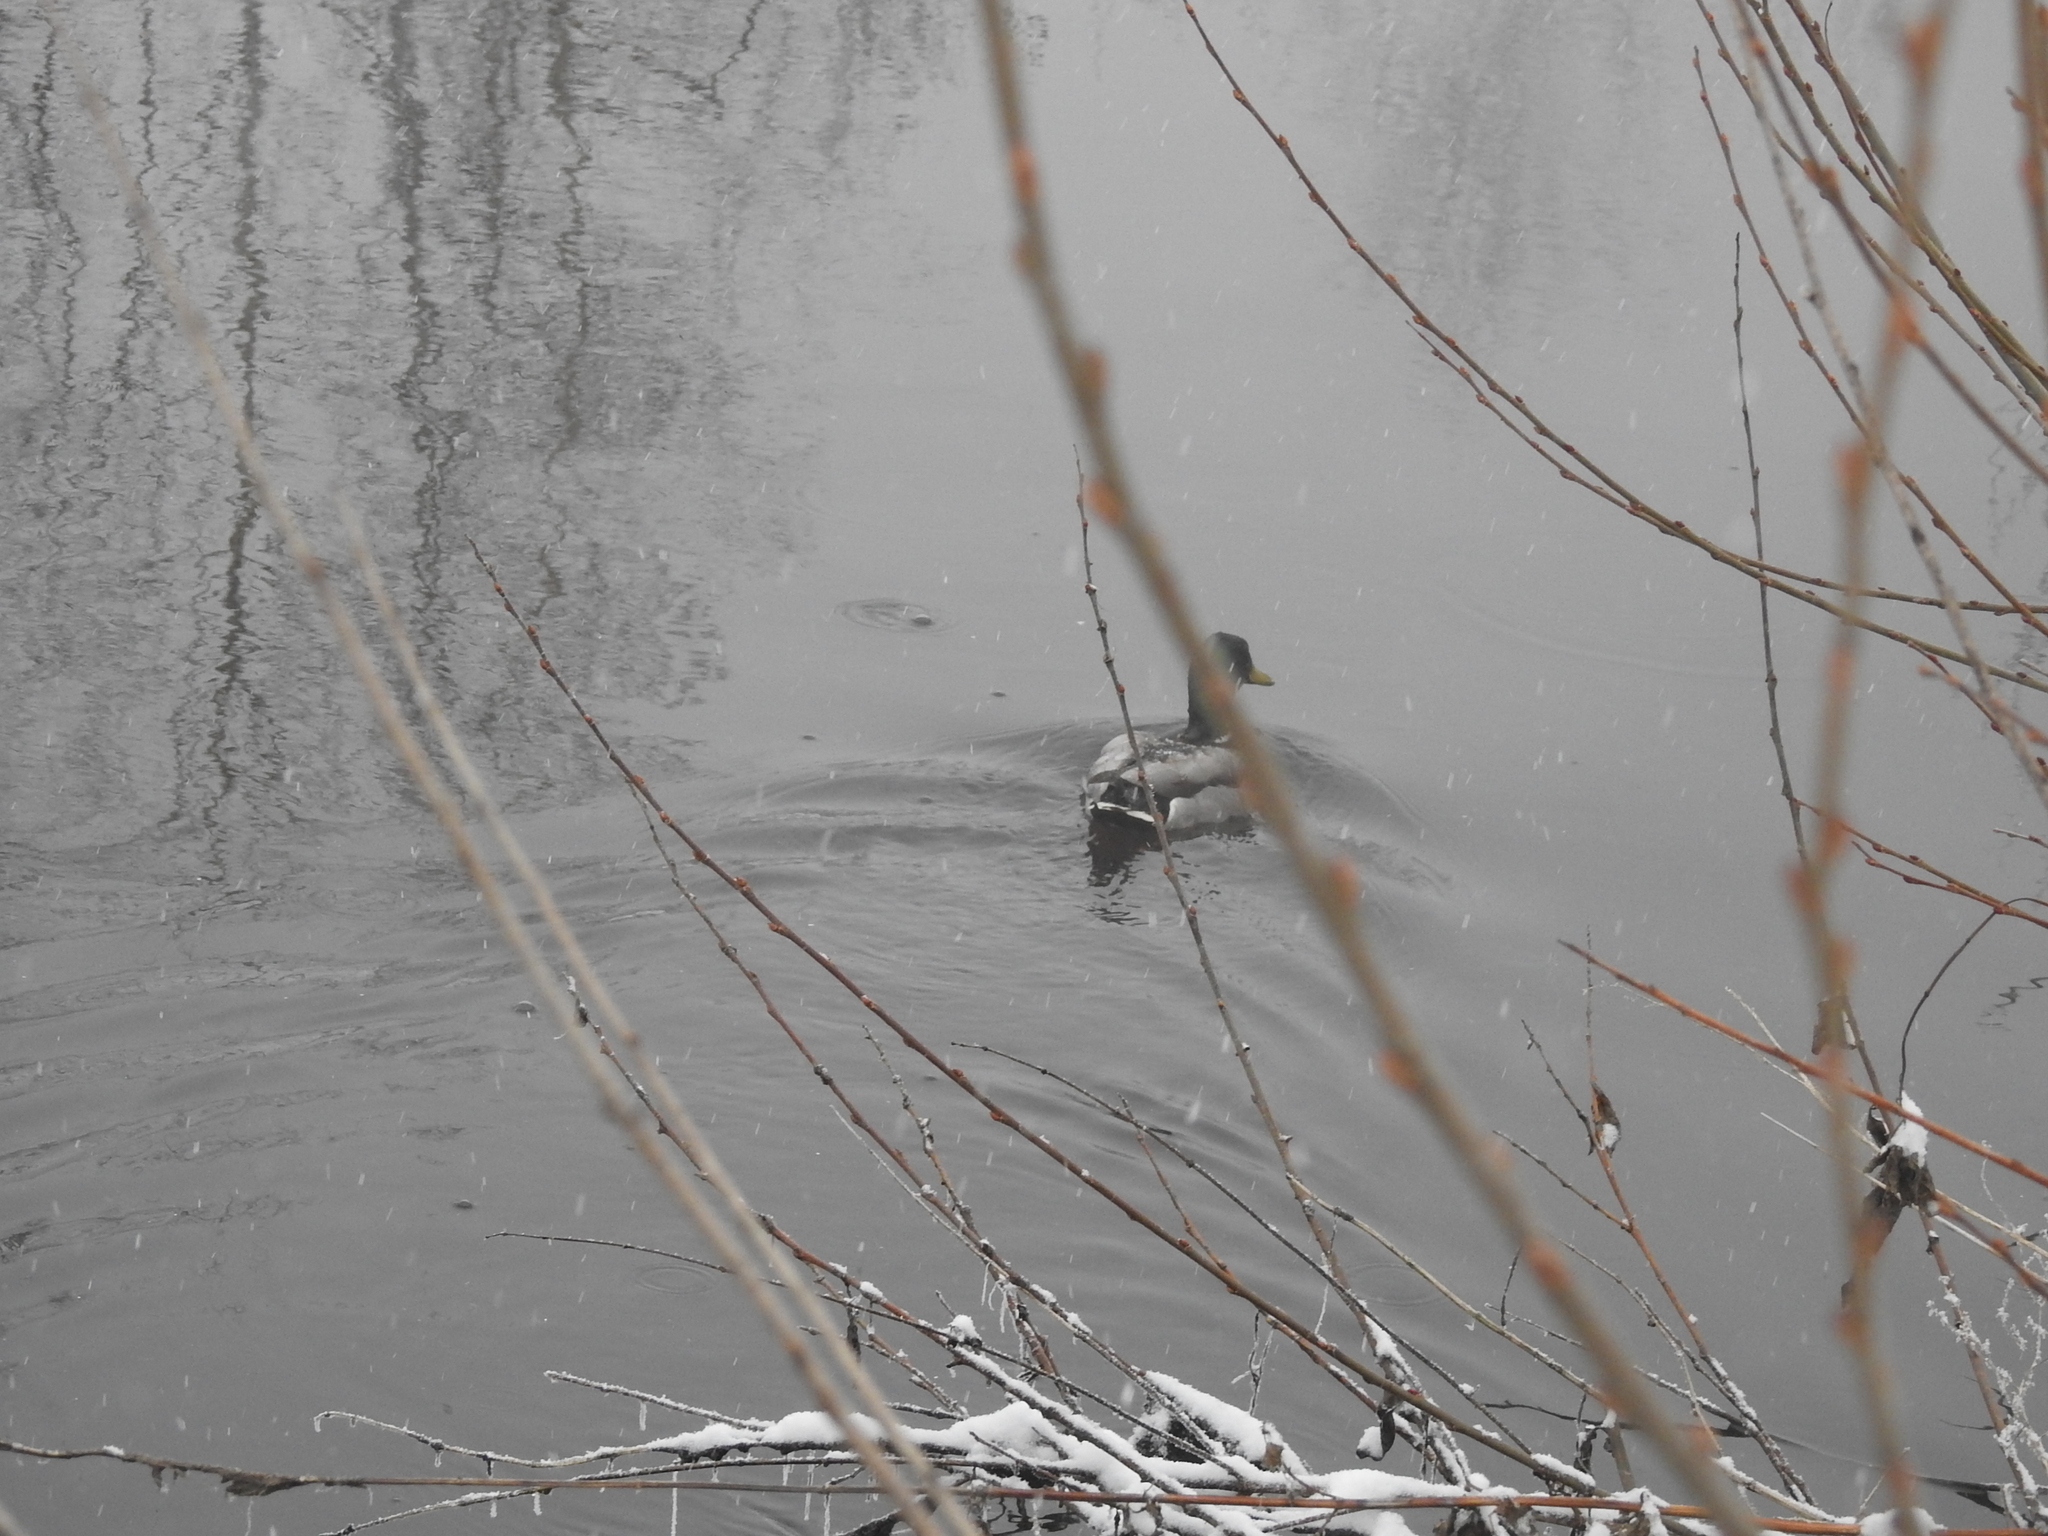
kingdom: Animalia
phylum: Chordata
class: Aves
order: Anseriformes
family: Anatidae
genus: Anas
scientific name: Anas platyrhynchos
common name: Mallard
